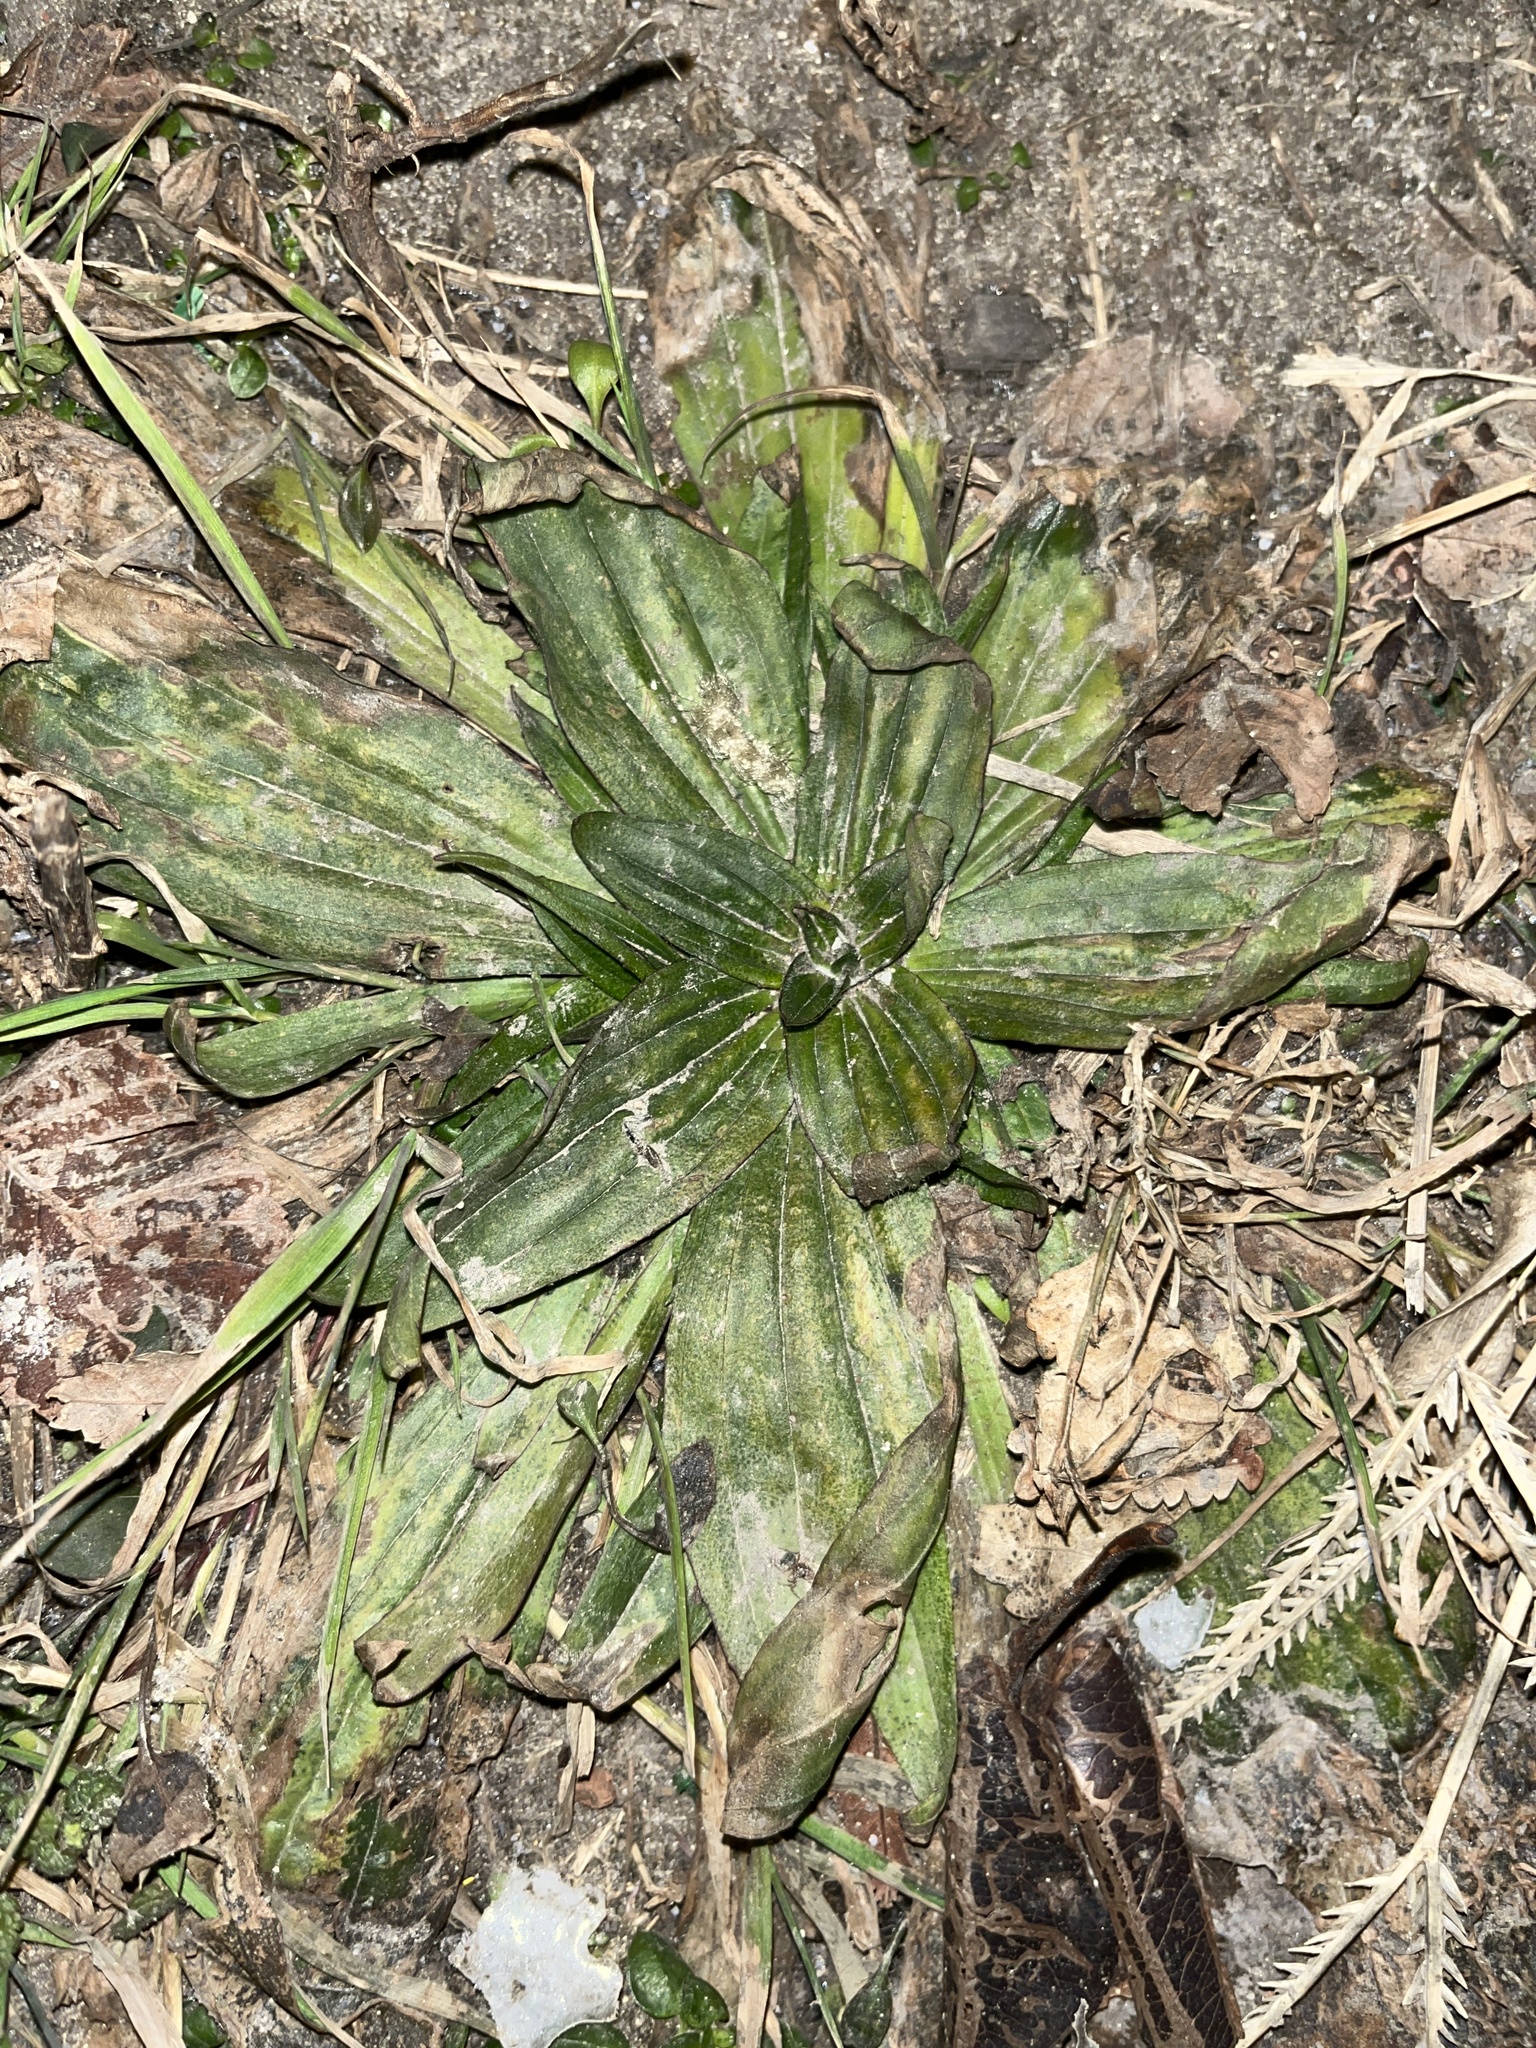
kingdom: Plantae
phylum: Tracheophyta
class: Magnoliopsida
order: Lamiales
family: Plantaginaceae
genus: Plantago
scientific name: Plantago lanceolata
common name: Ribwort plantain
